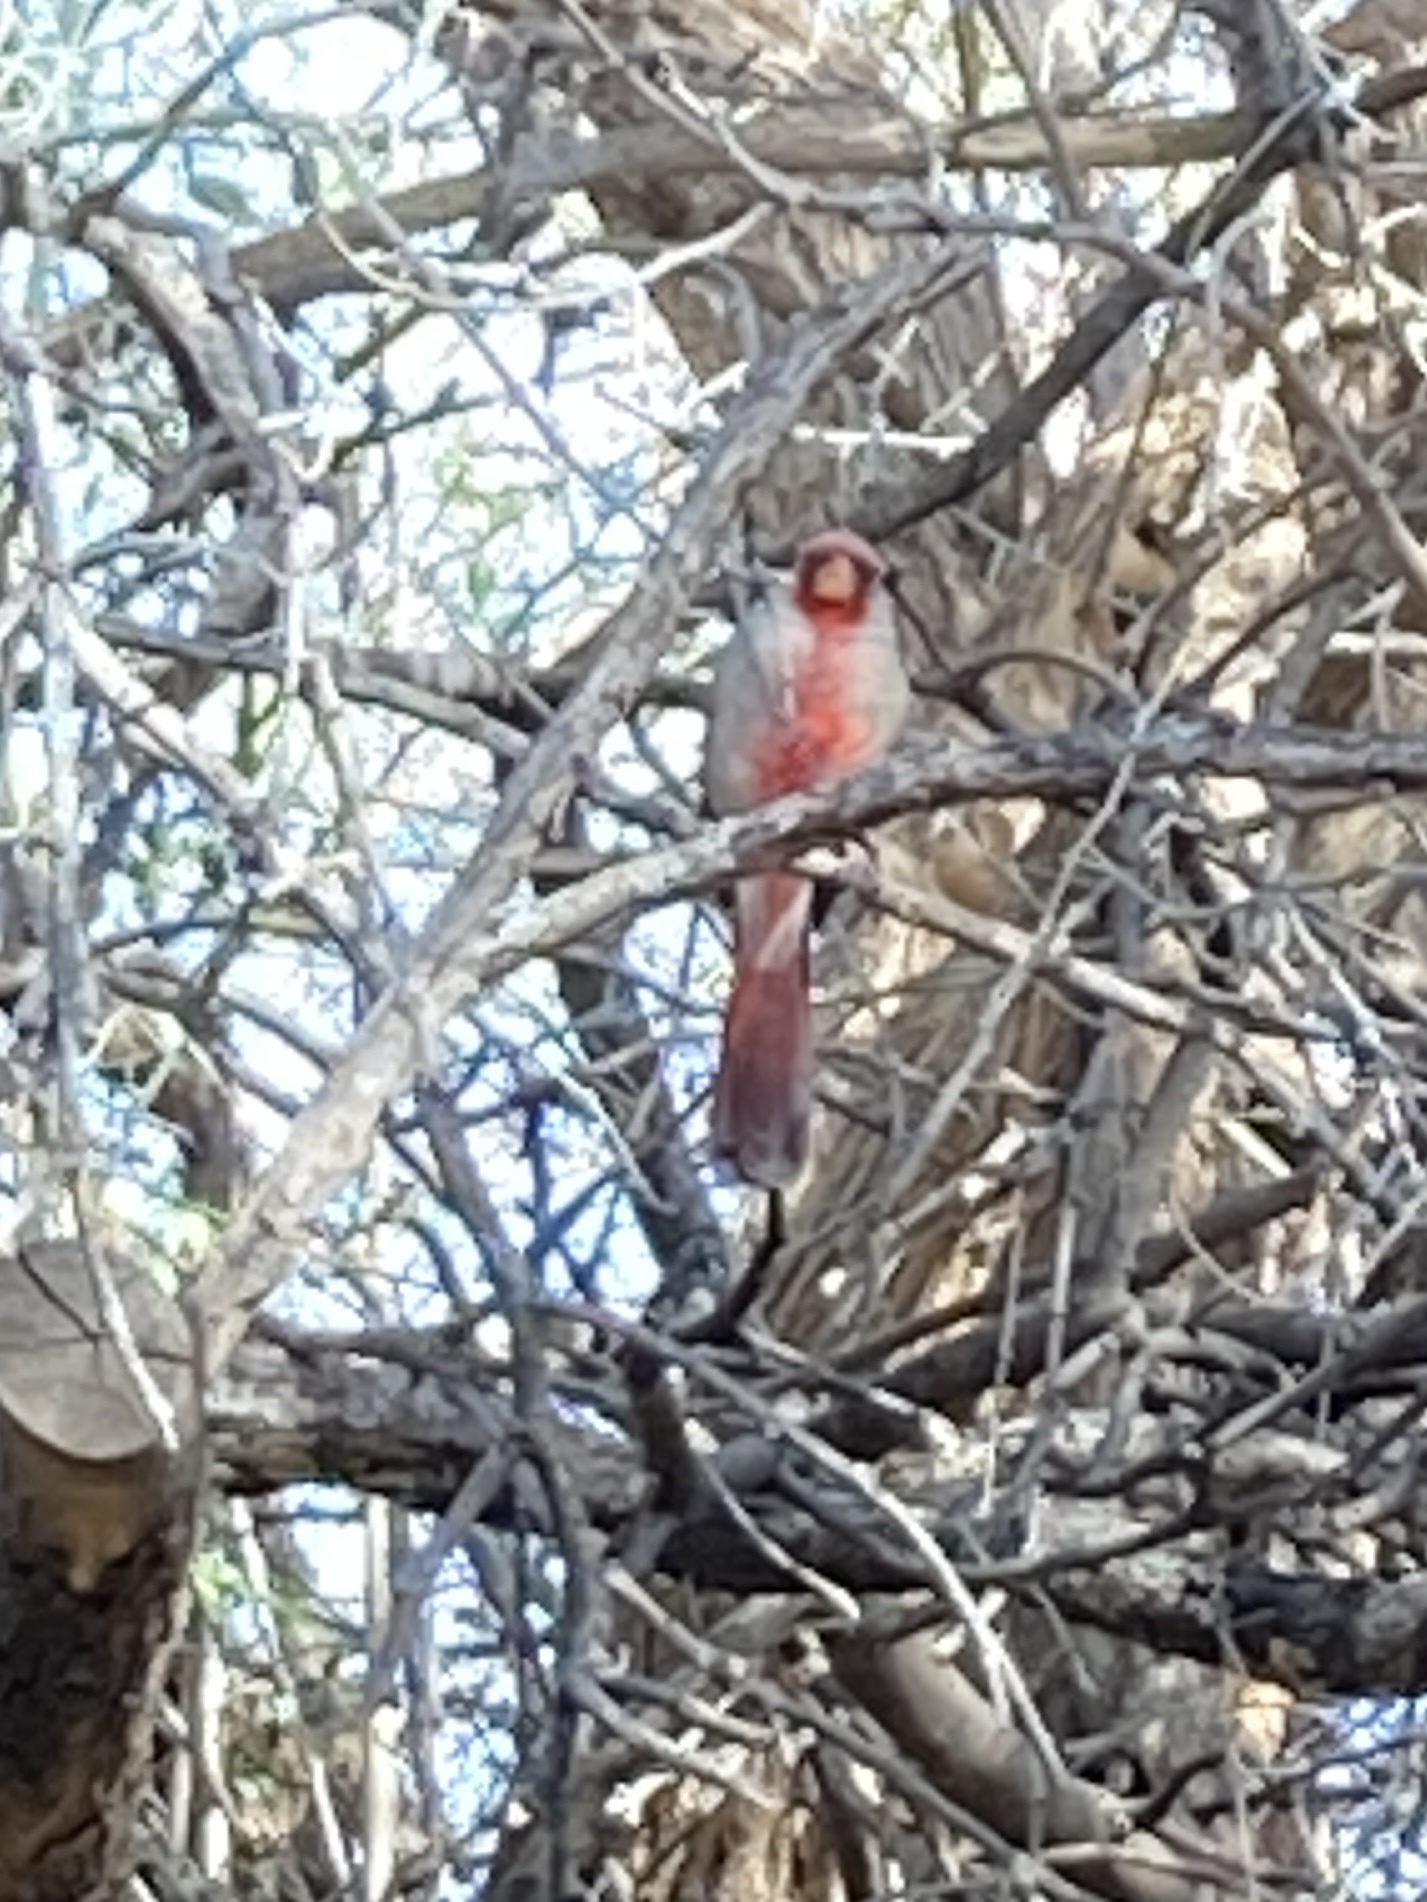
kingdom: Animalia
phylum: Chordata
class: Aves
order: Passeriformes
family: Cardinalidae
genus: Cardinalis
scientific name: Cardinalis sinuatus
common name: Pyrrhuloxia
